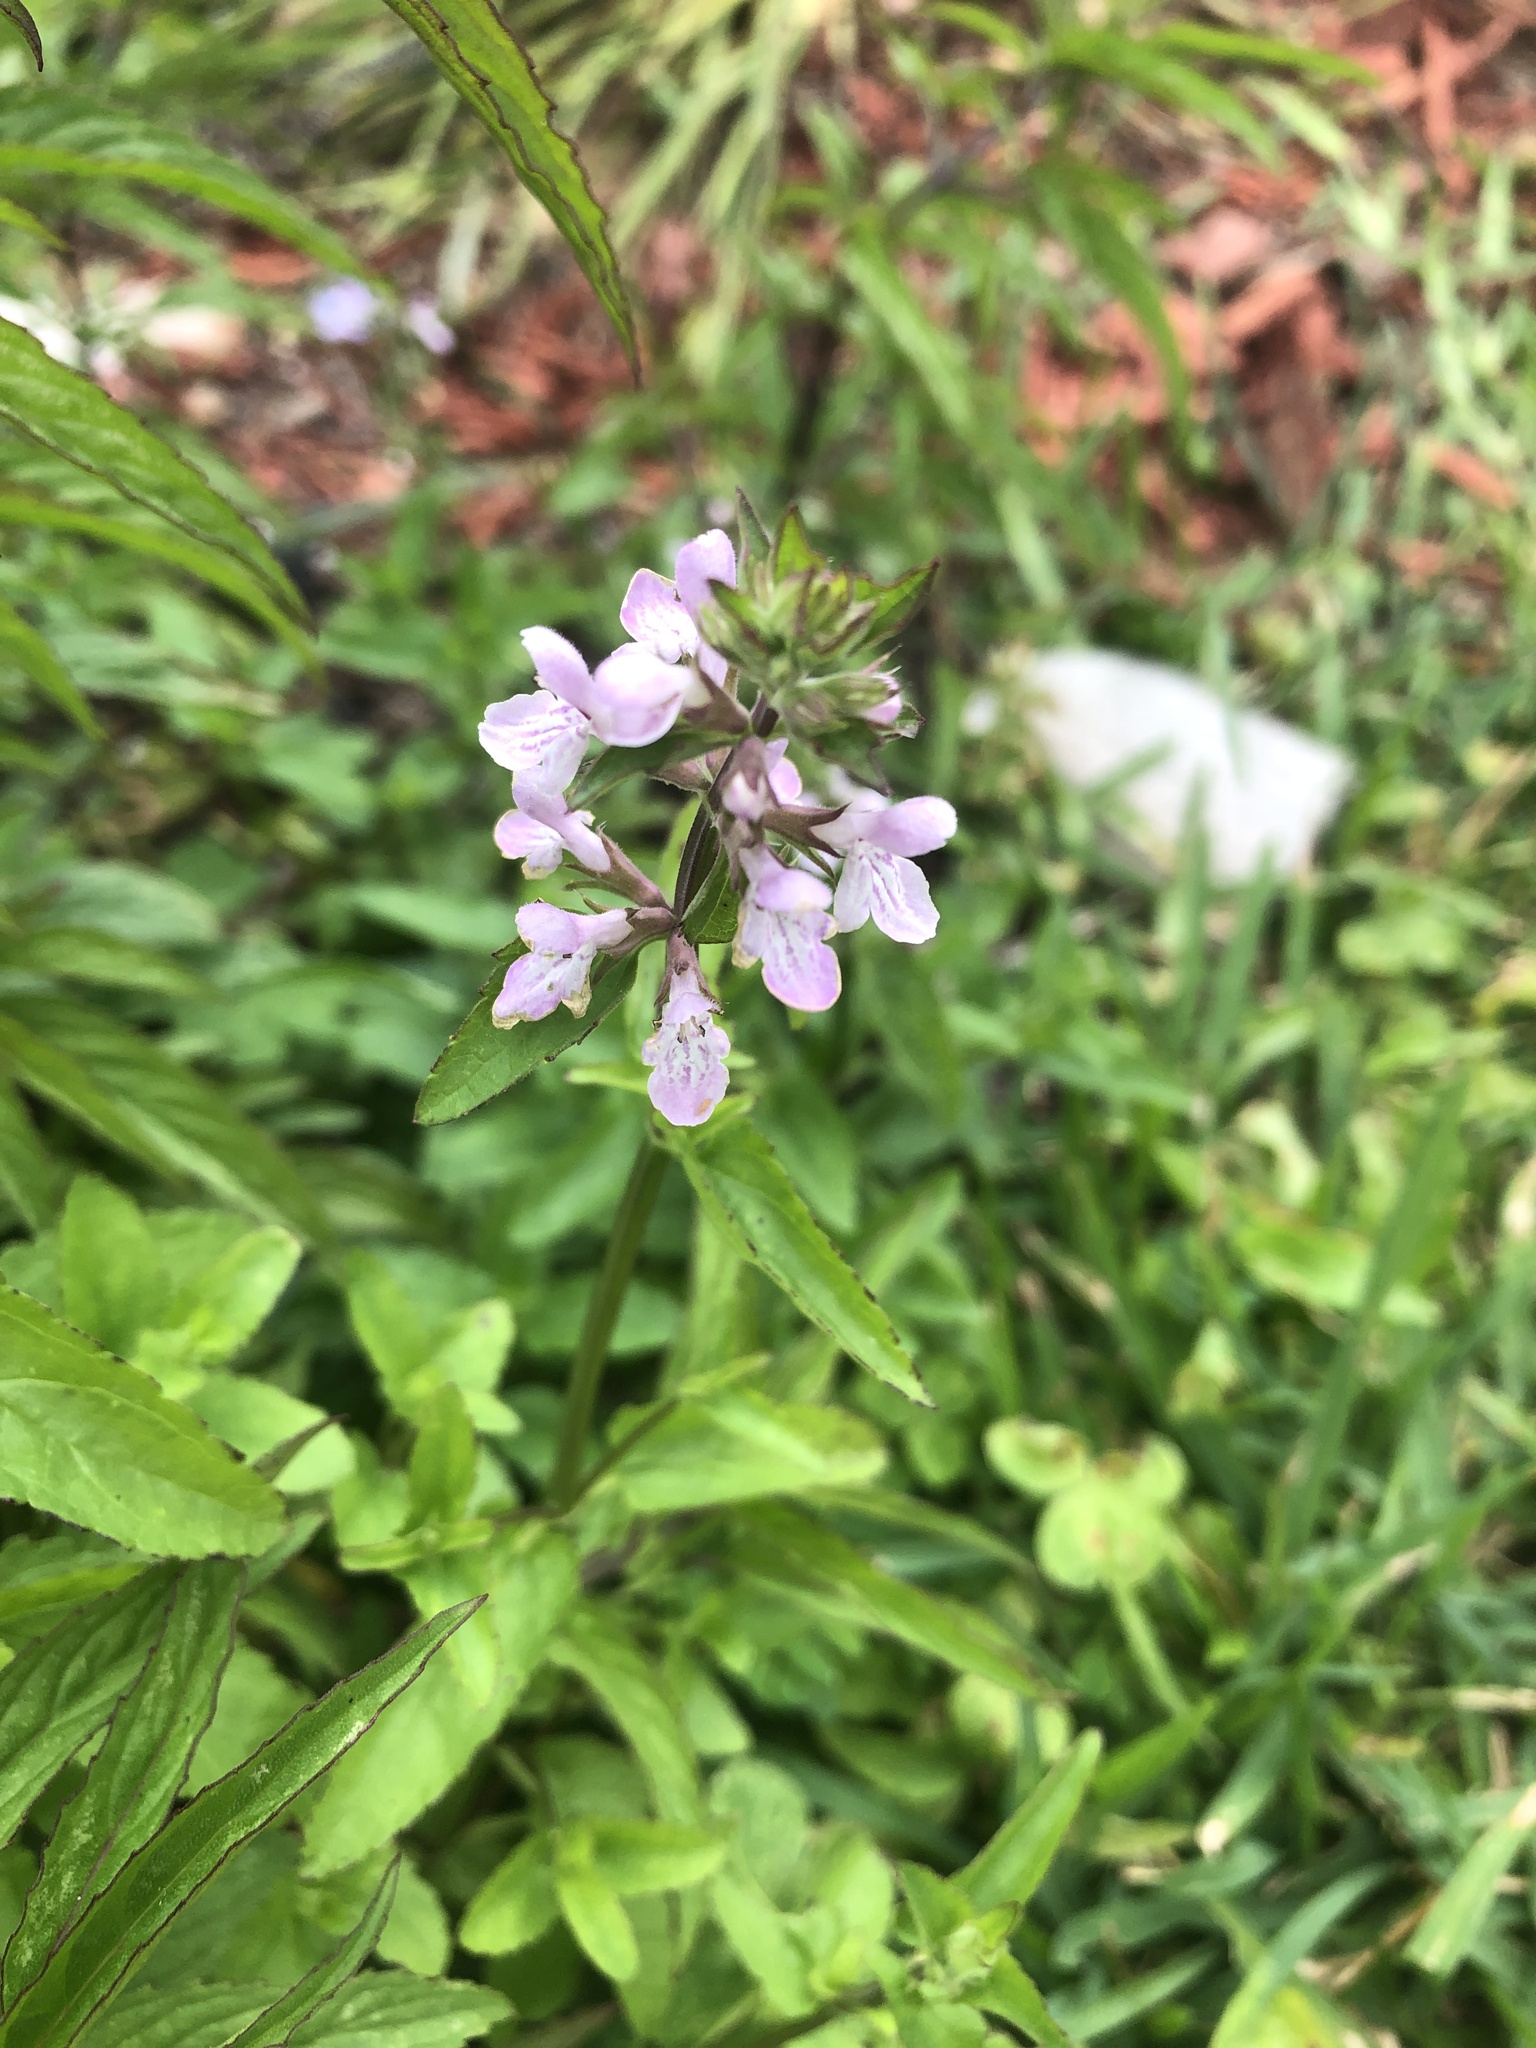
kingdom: Plantae
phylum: Tracheophyta
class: Magnoliopsida
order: Lamiales
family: Lamiaceae
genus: Stachys
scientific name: Stachys floridana
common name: Florida betony
